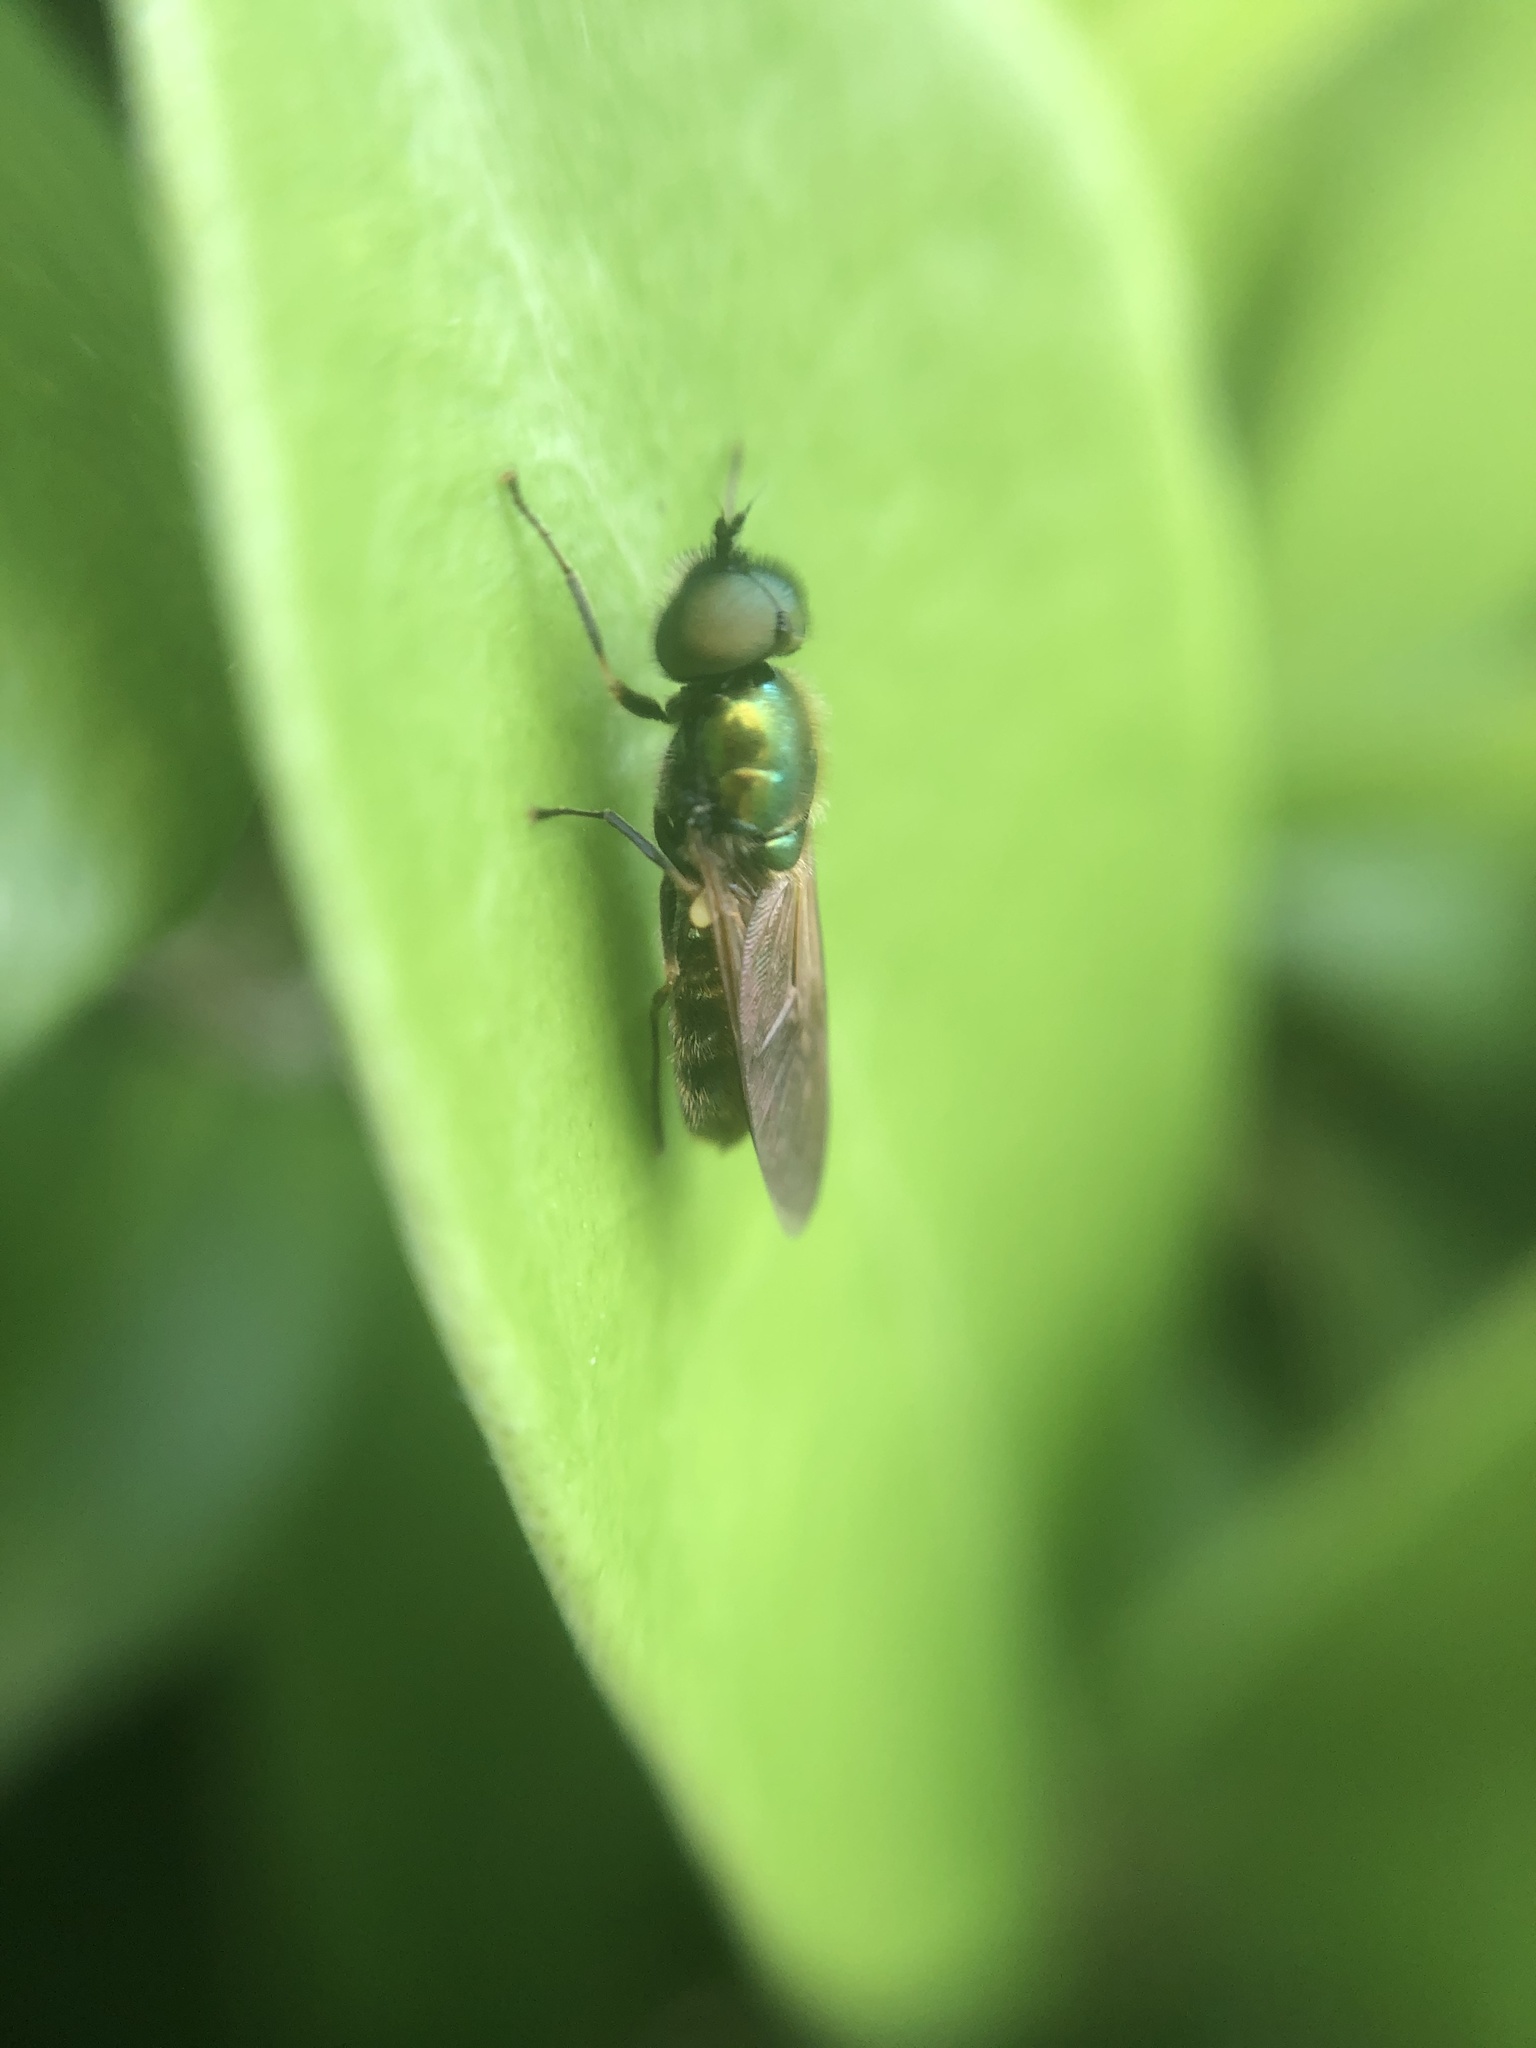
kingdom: Animalia
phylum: Arthropoda
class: Insecta
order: Diptera
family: Stratiomyidae
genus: Chloromyia
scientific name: Chloromyia formosa
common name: Soldier fly
